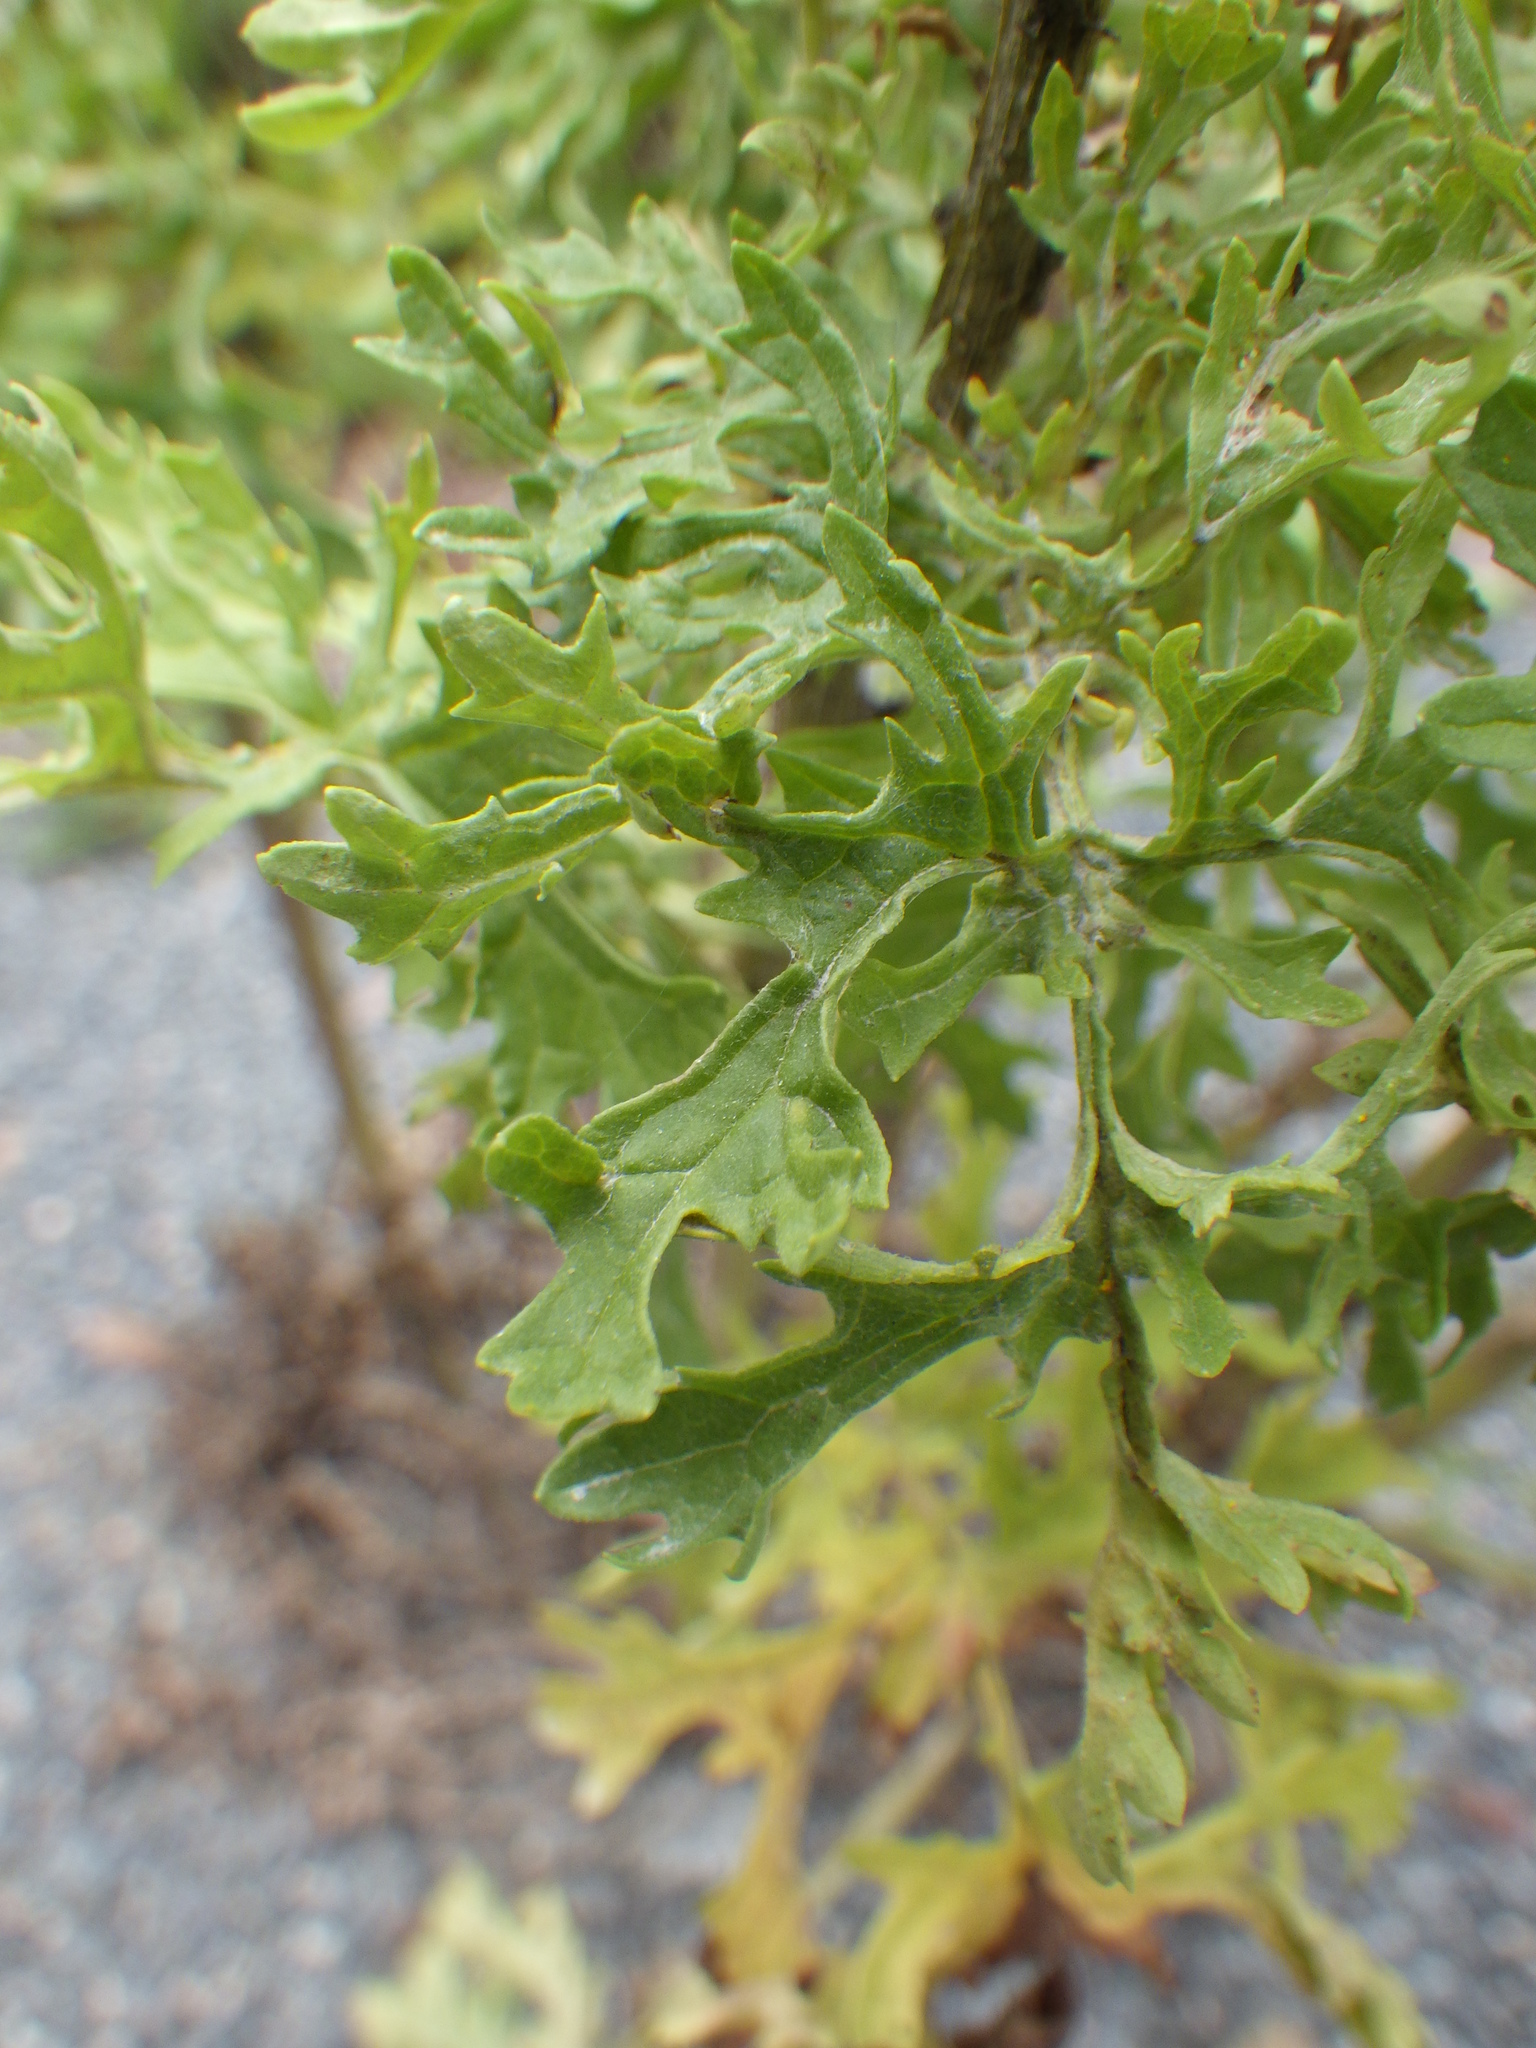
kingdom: Plantae
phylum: Tracheophyta
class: Magnoliopsida
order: Asterales
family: Asteraceae
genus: Jacobaea
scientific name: Jacobaea vulgaris
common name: Stinking willie
